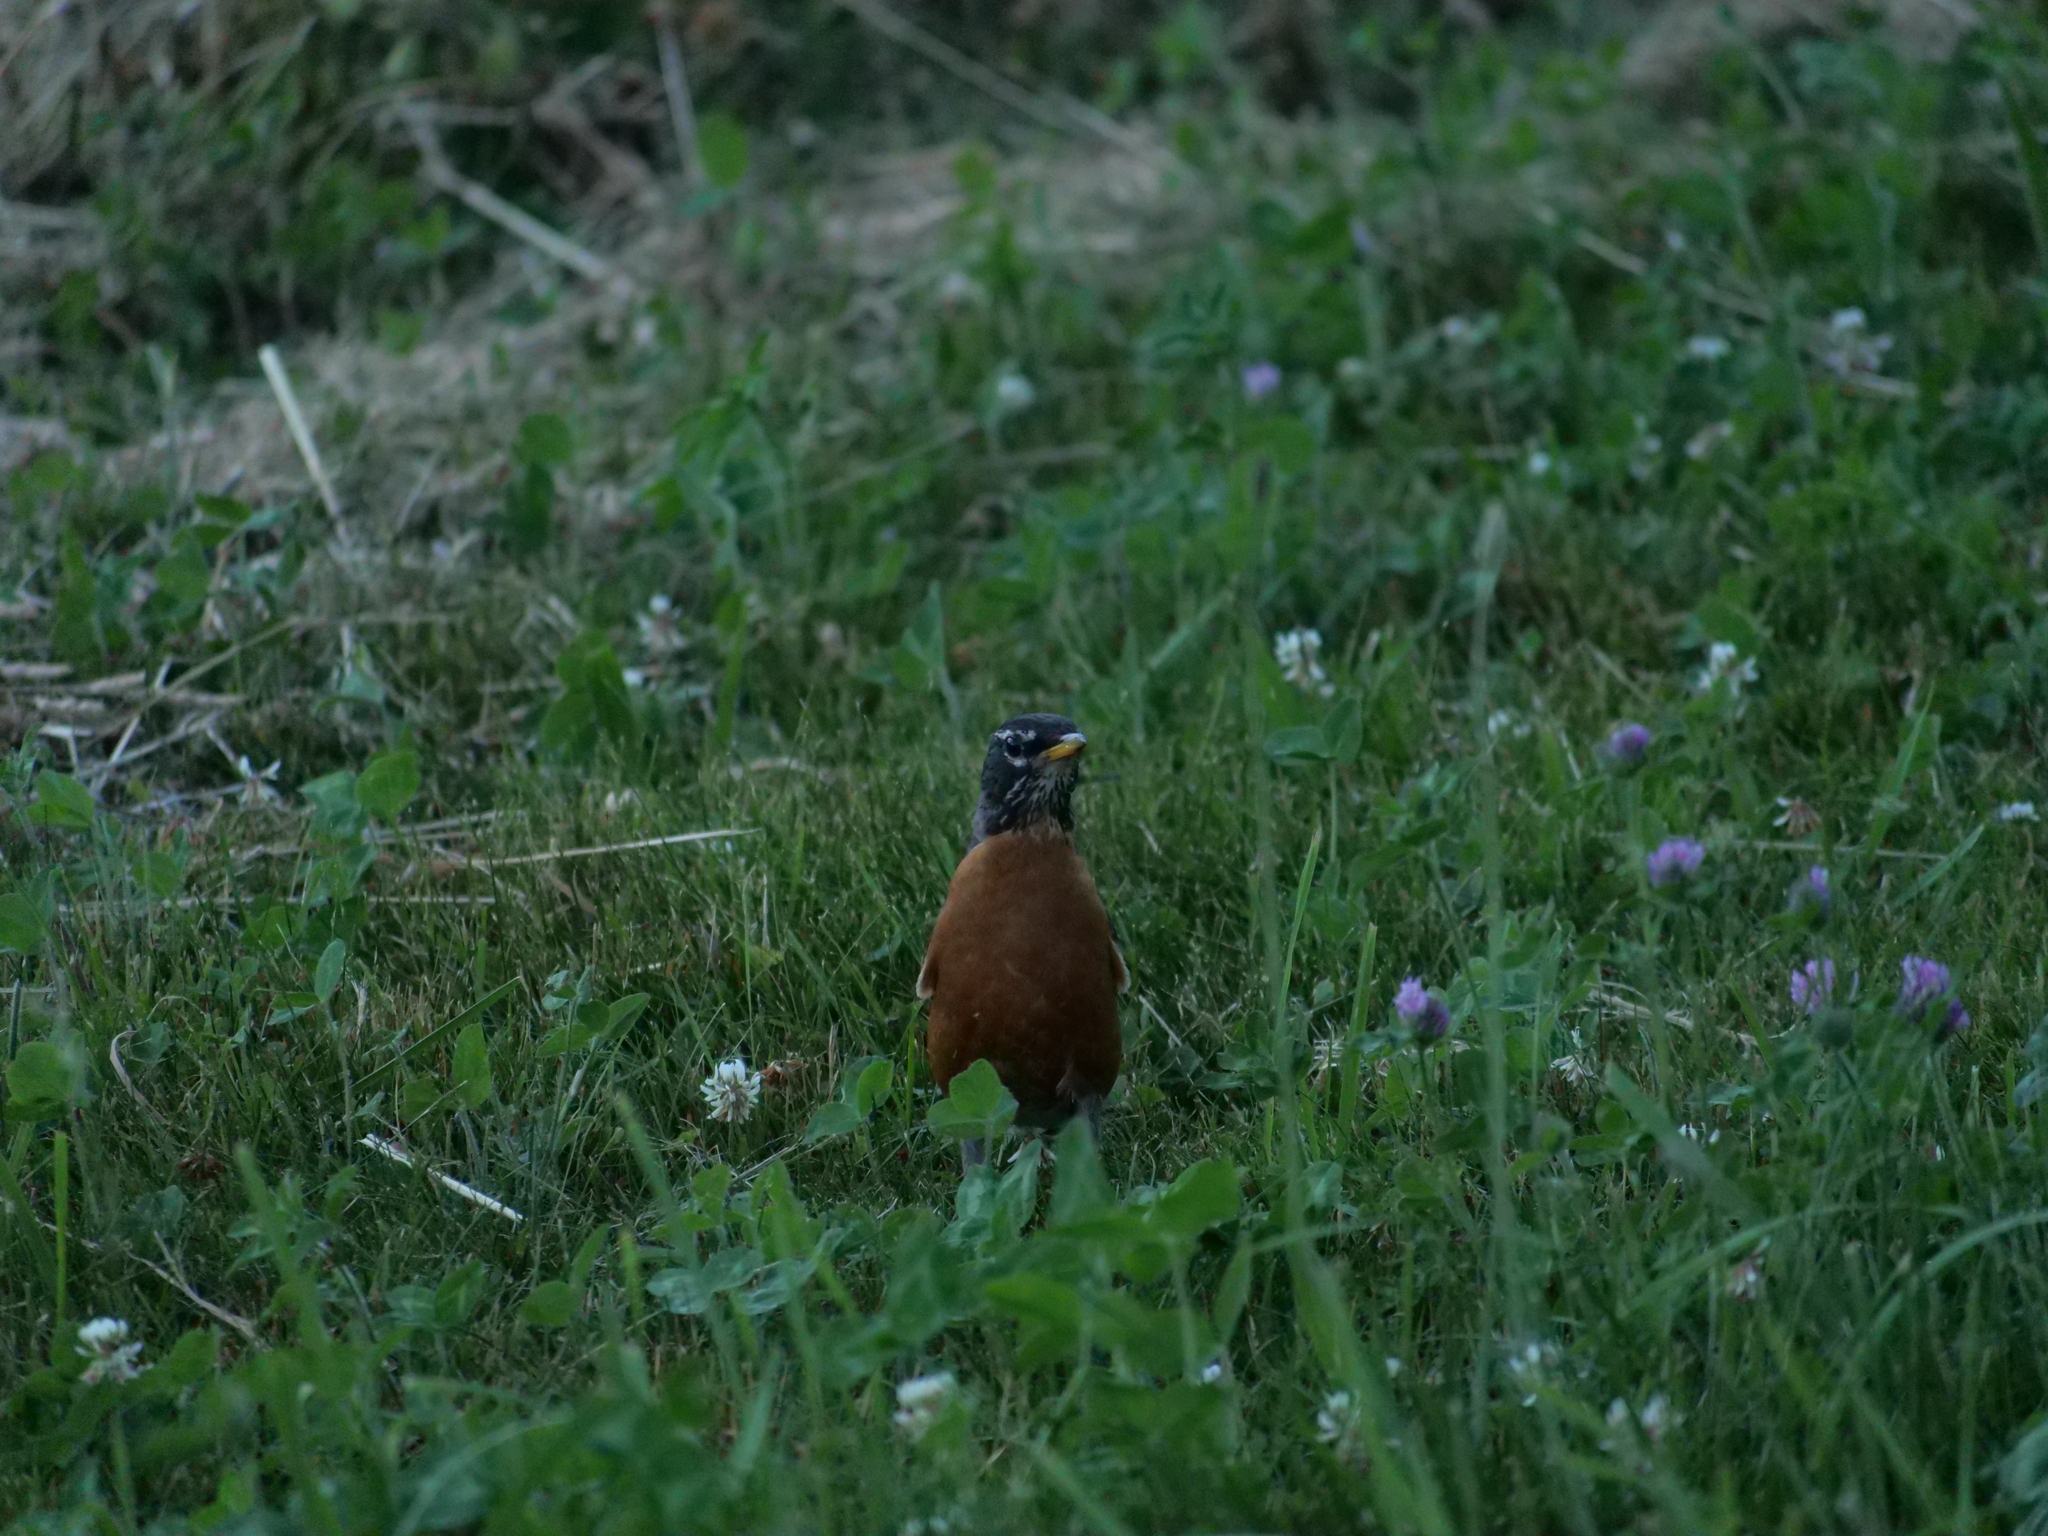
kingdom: Animalia
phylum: Chordata
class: Aves
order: Passeriformes
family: Turdidae
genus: Turdus
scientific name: Turdus migratorius
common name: American robin
